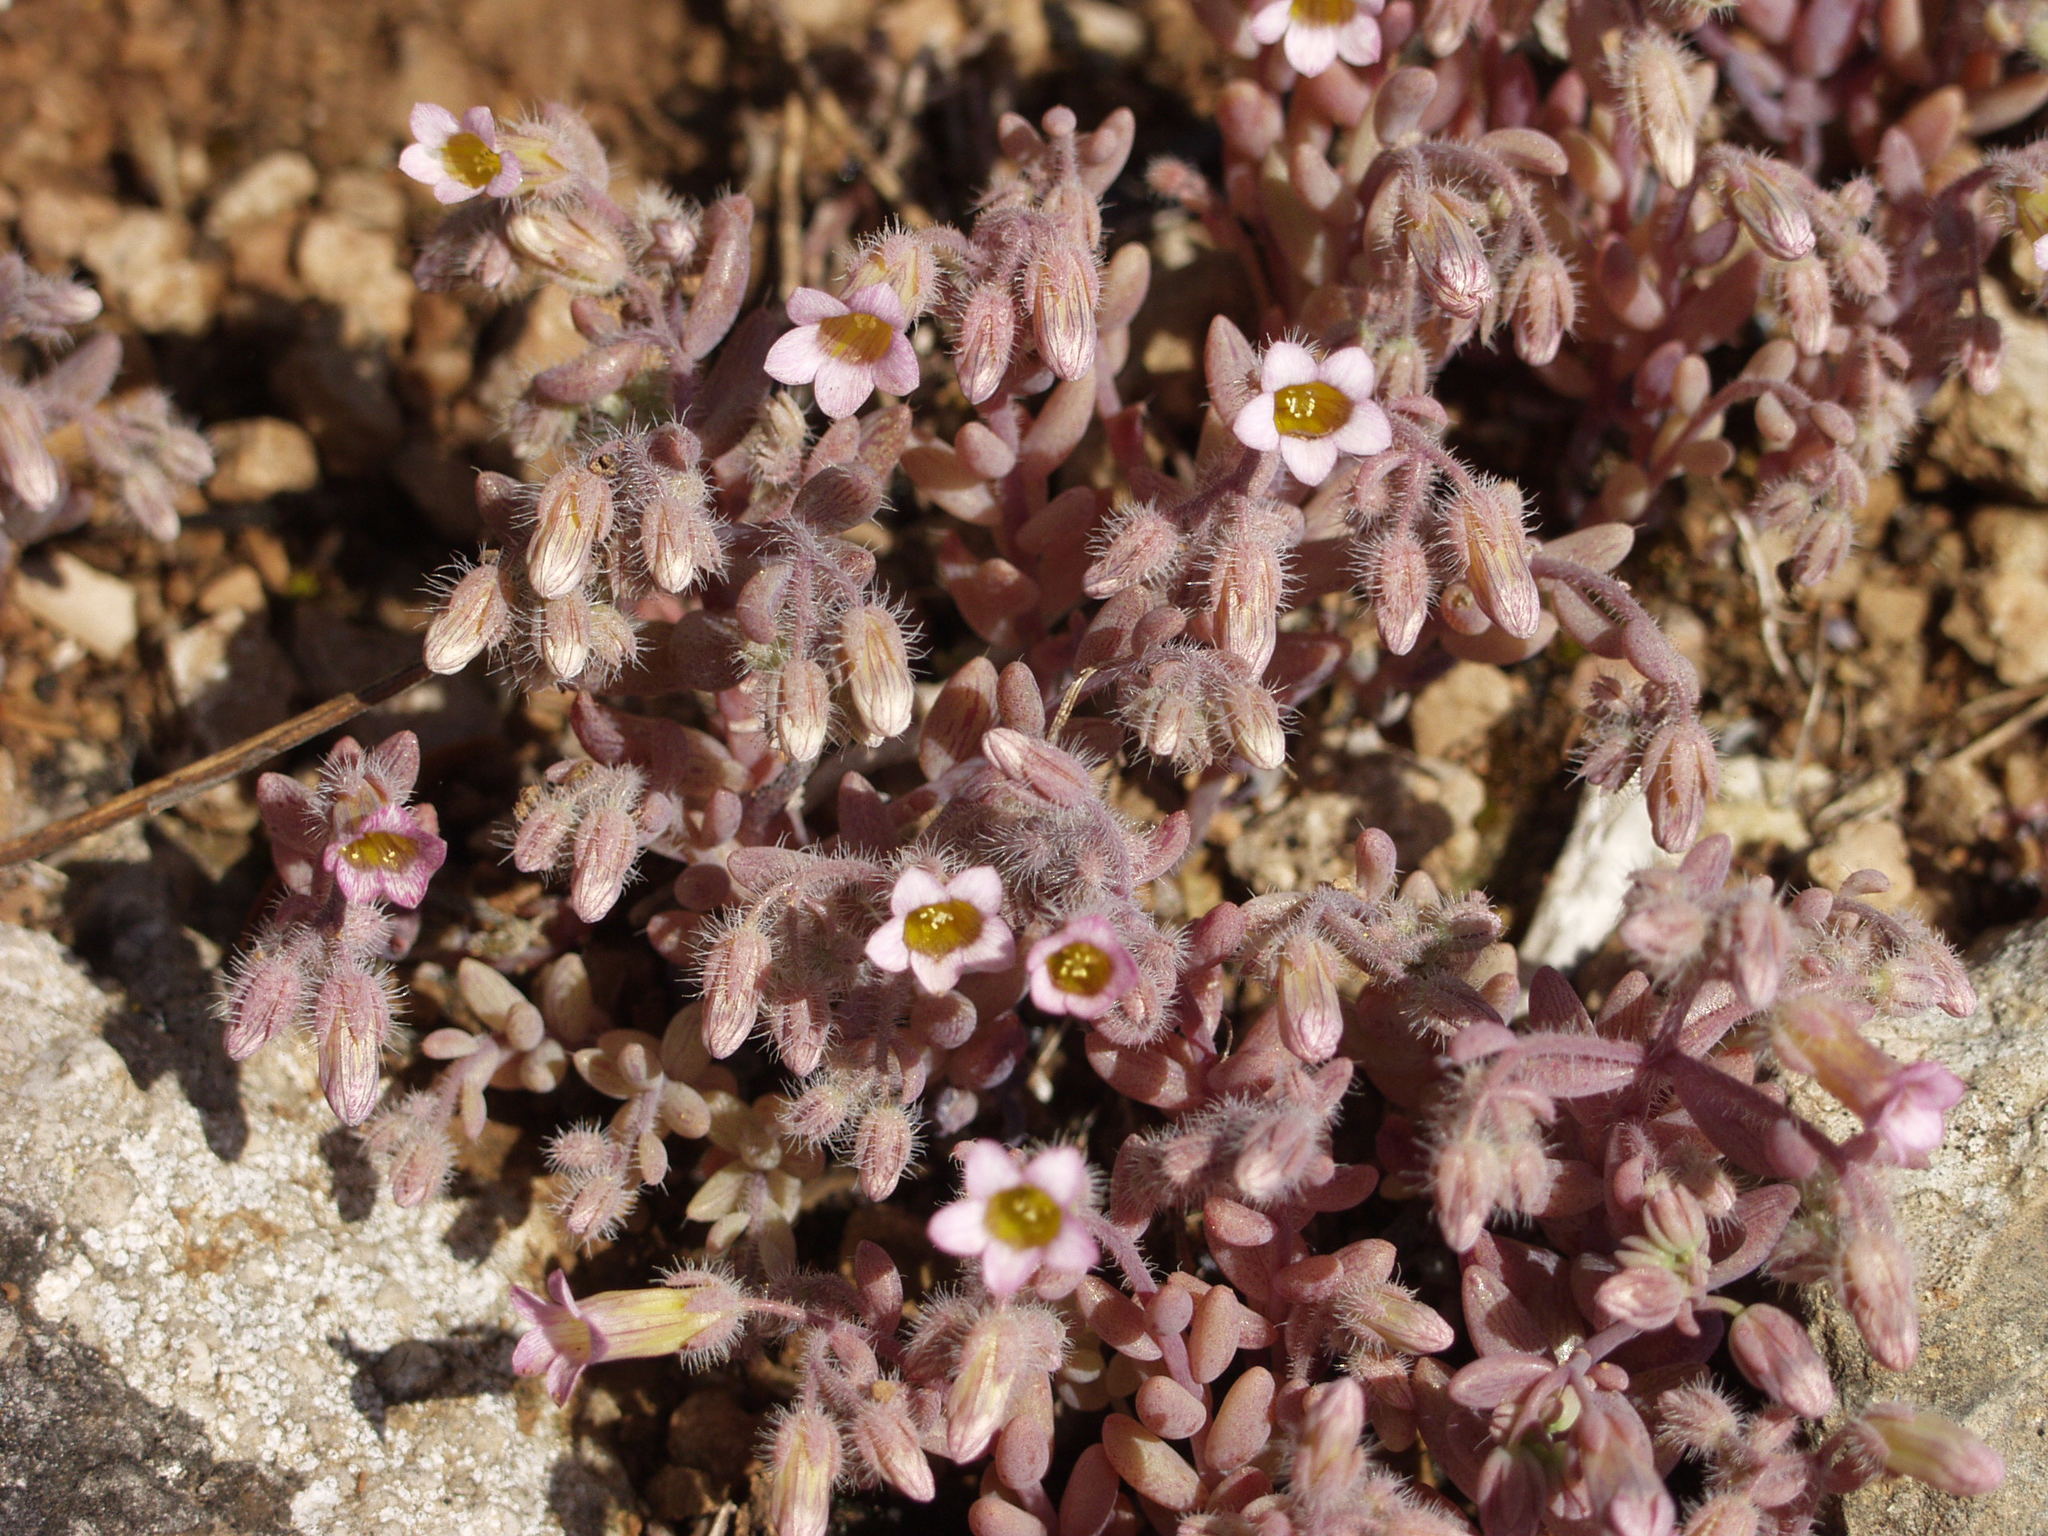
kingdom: Plantae
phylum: Tracheophyta
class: Magnoliopsida
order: Saxifragales
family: Crassulaceae
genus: Sedum
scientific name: Sedum mucizonia
